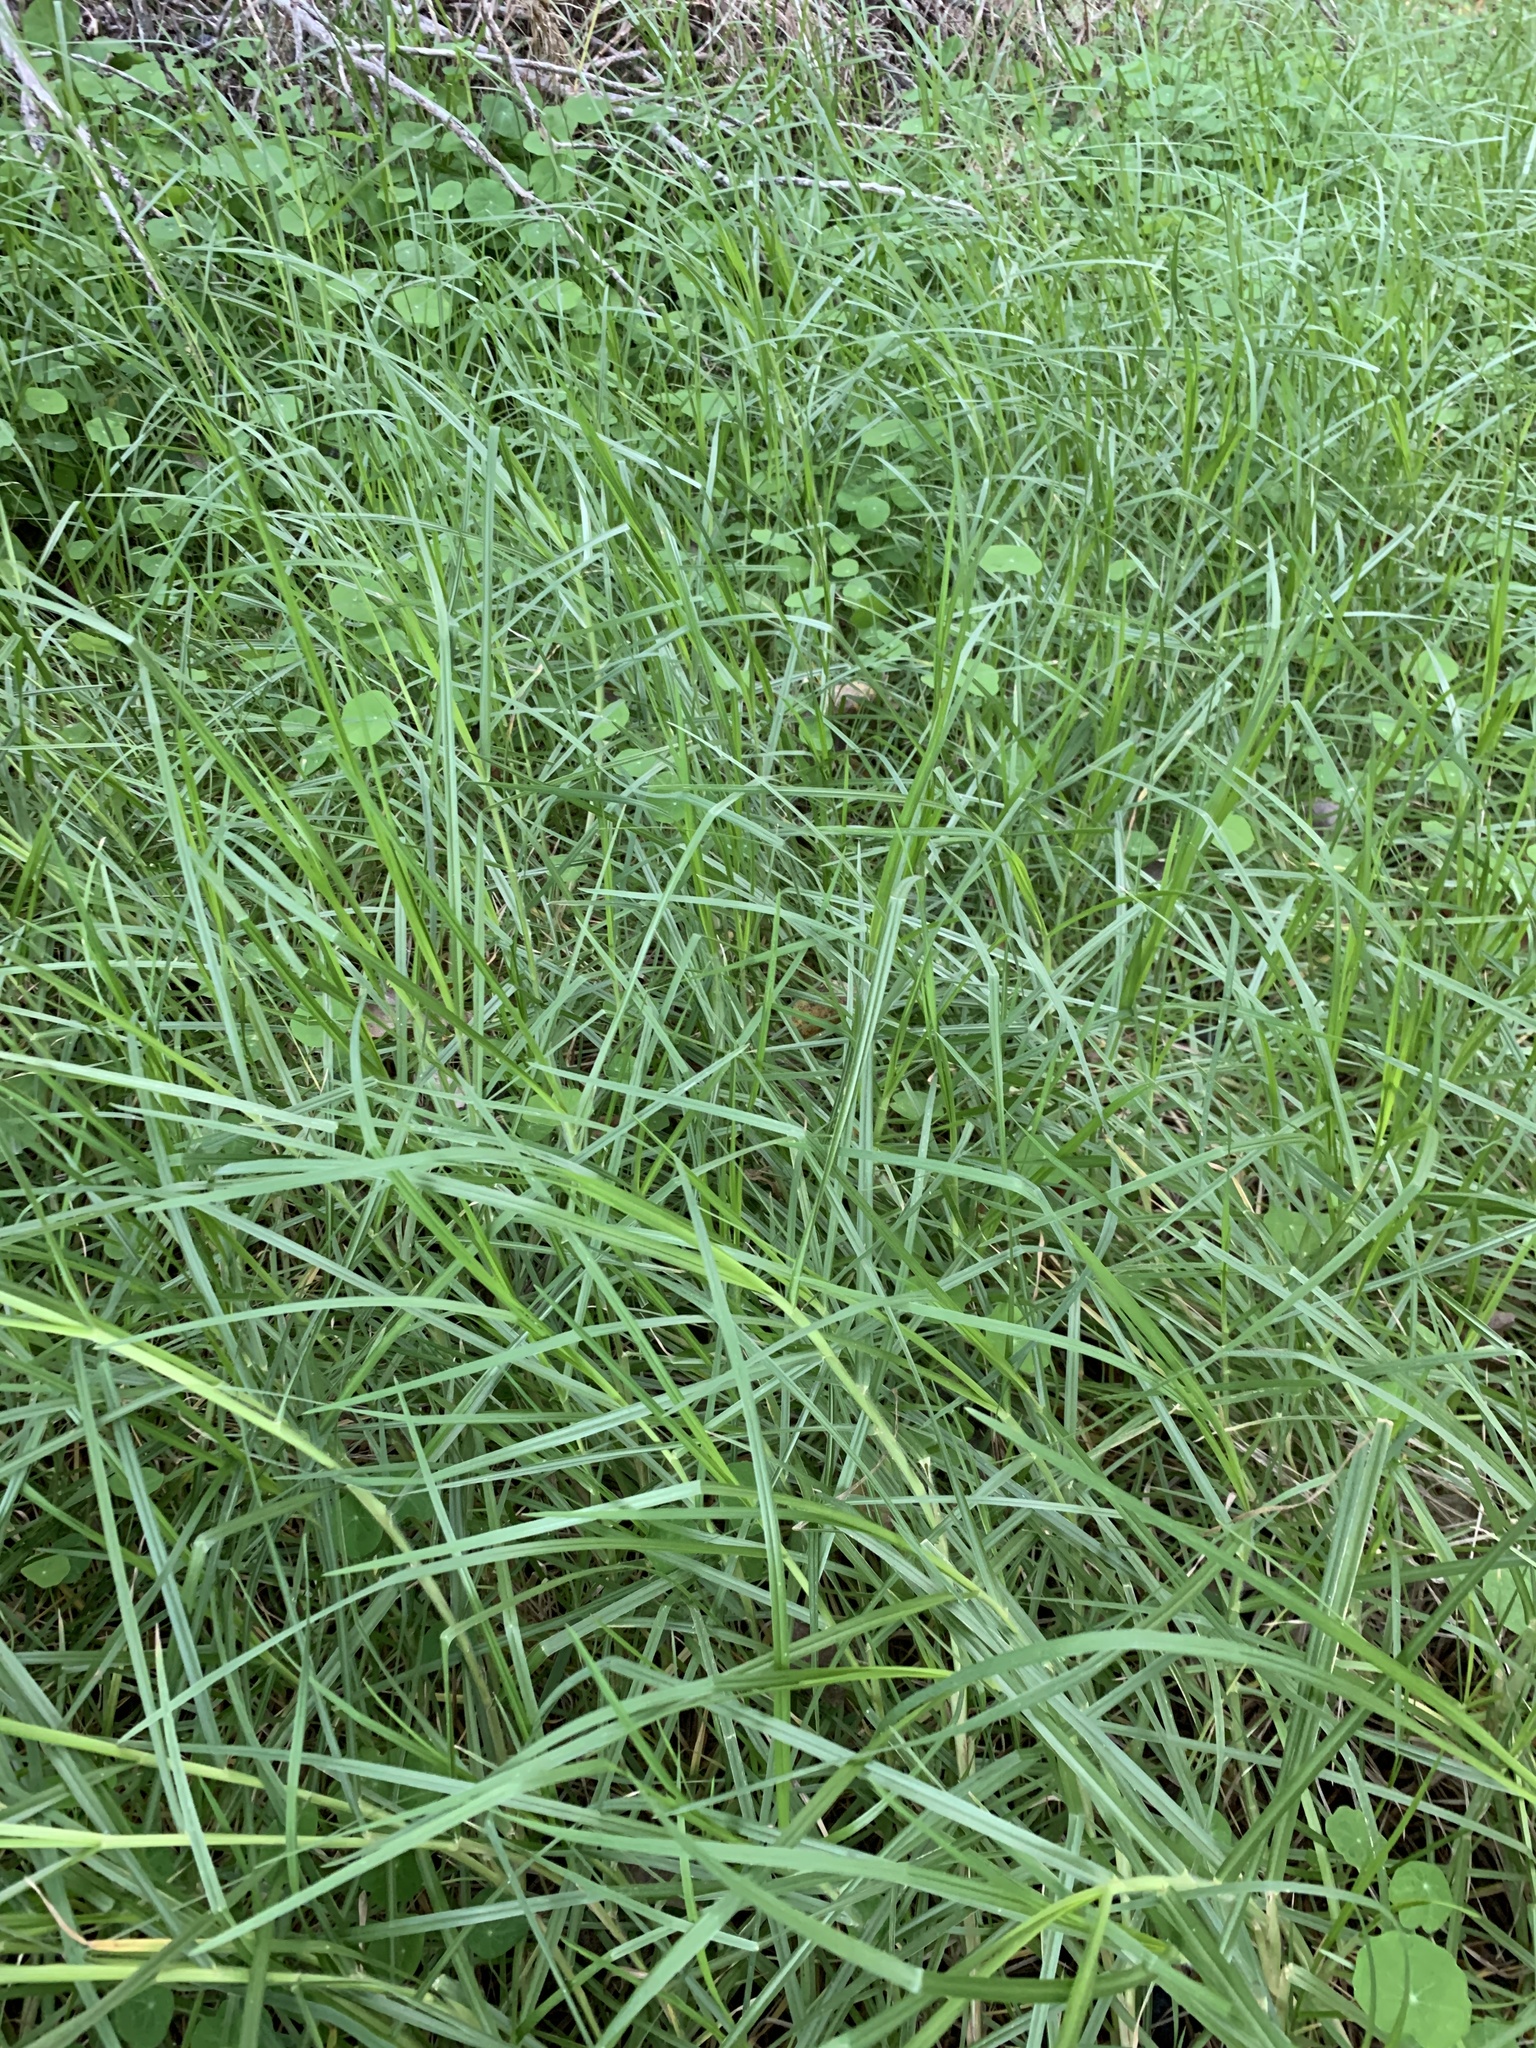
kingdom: Plantae
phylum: Tracheophyta
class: Liliopsida
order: Poales
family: Poaceae
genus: Cenchrus
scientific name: Cenchrus clandestinus
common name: Kikuyugrass
